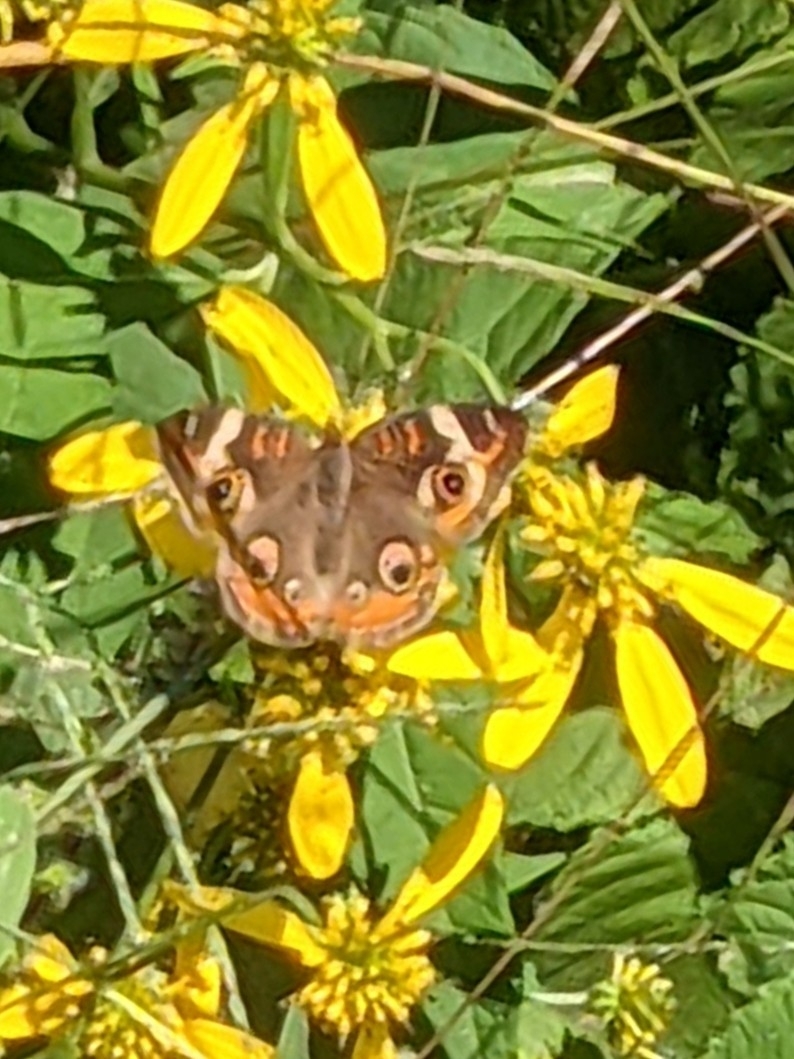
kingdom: Animalia
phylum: Arthropoda
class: Insecta
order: Lepidoptera
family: Nymphalidae
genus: Junonia
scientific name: Junonia coenia
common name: Common buckeye
